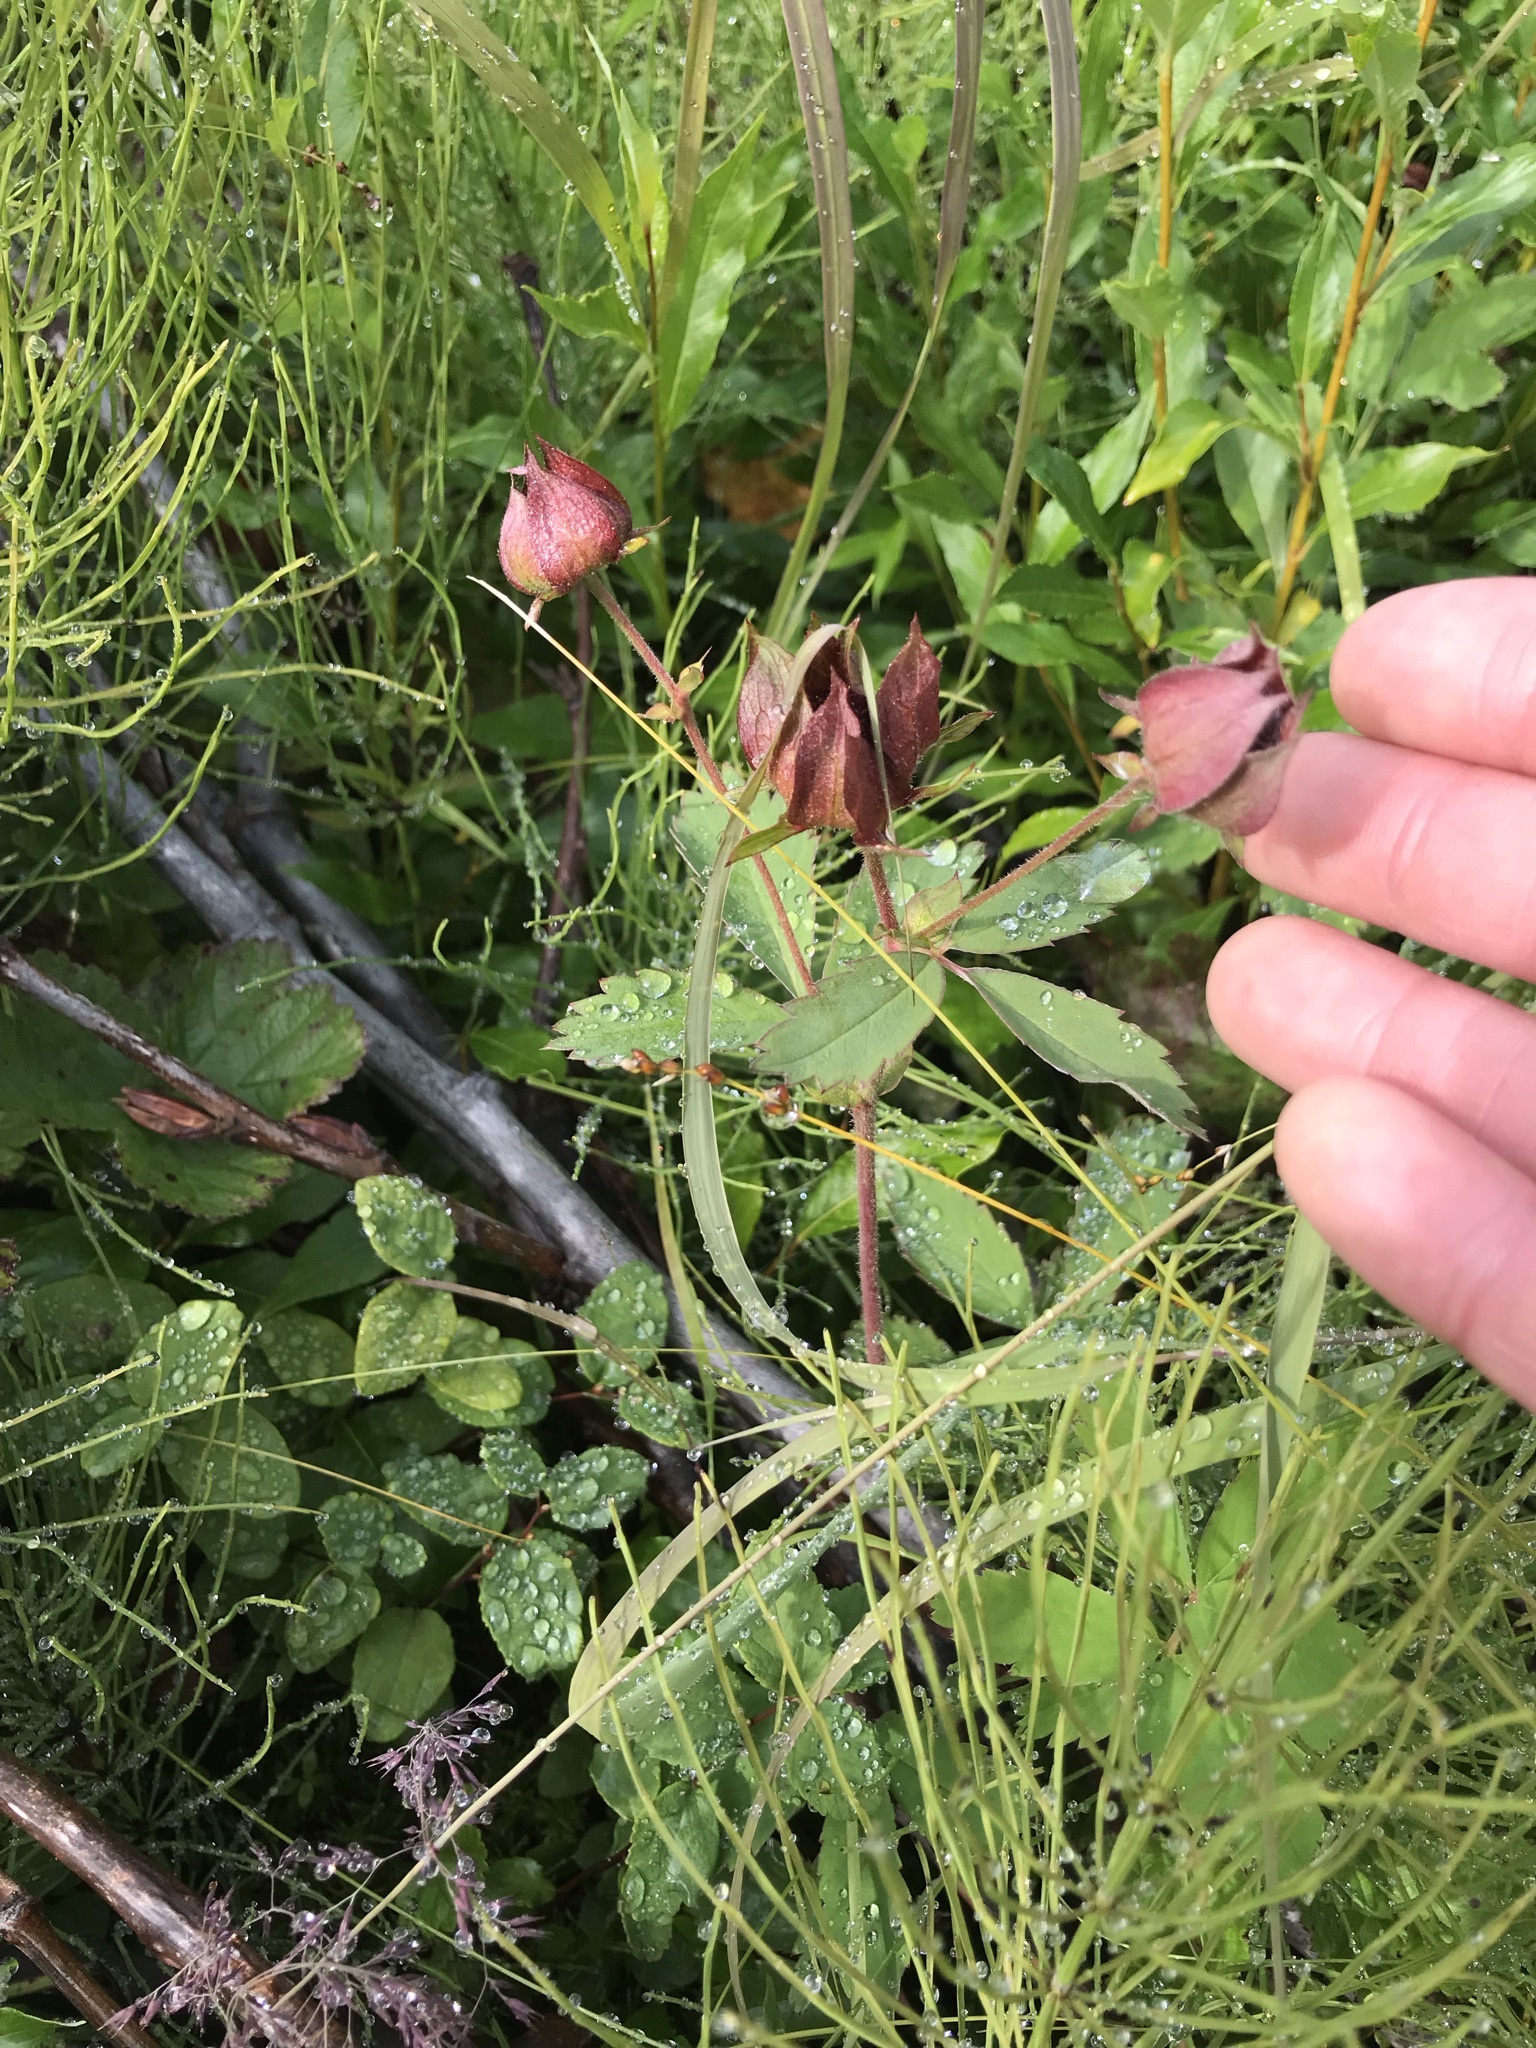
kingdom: Plantae
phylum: Tracheophyta
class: Magnoliopsida
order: Rosales
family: Rosaceae
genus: Comarum
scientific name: Comarum palustre
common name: Marsh cinquefoil
